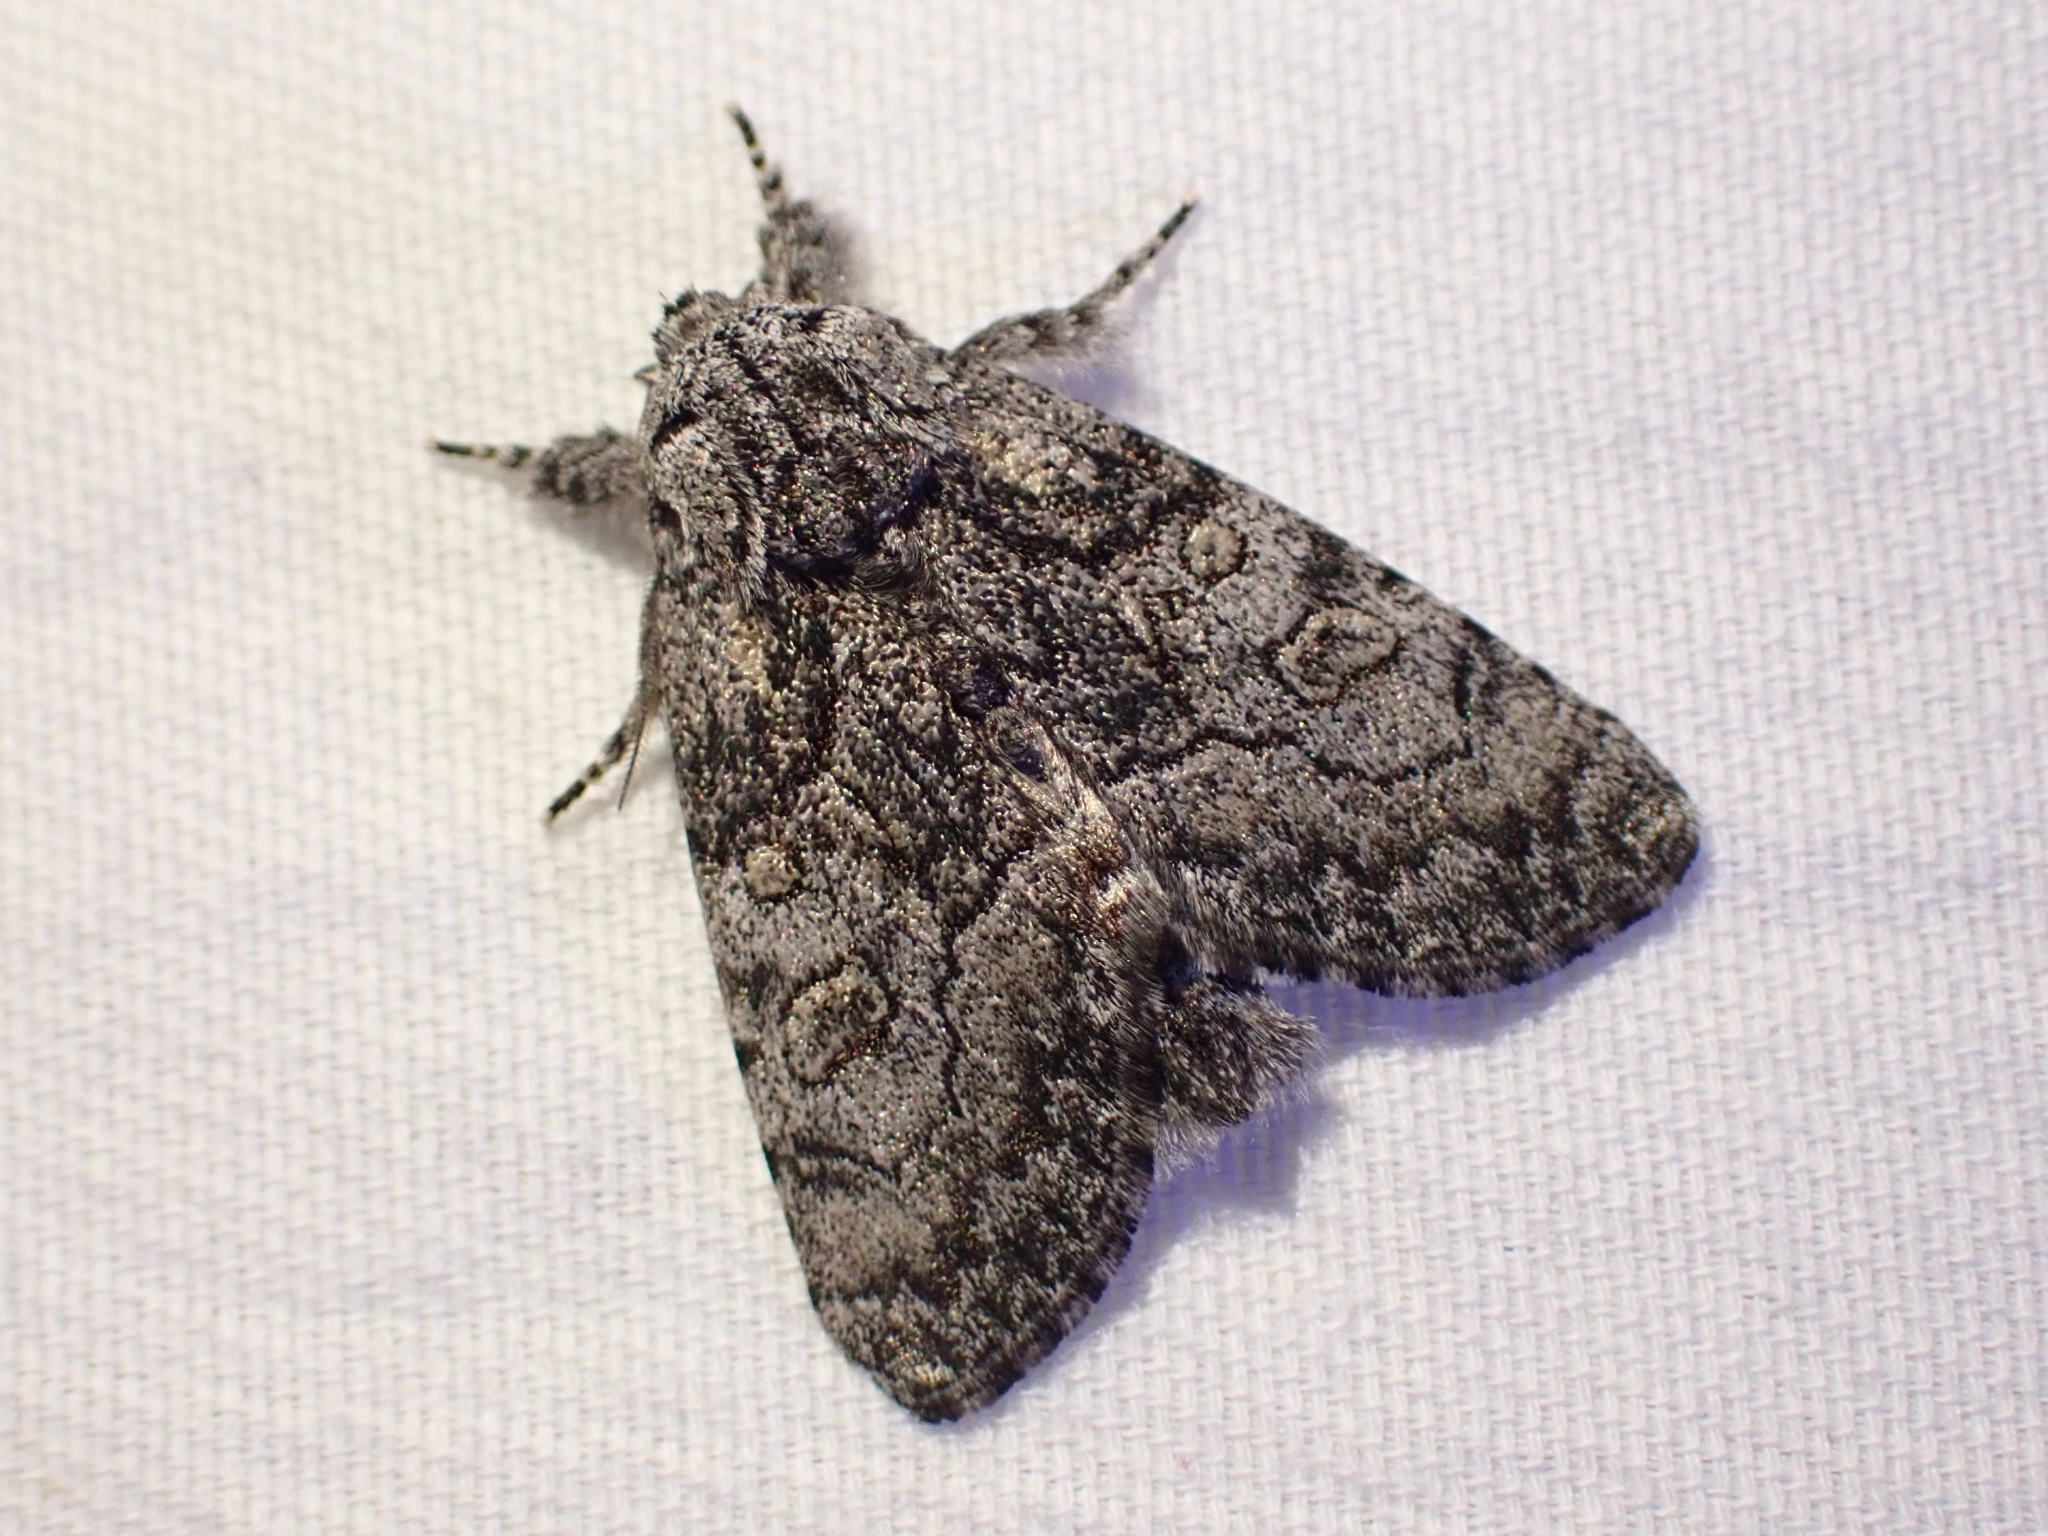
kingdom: Animalia
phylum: Arthropoda
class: Insecta
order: Lepidoptera
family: Noctuidae
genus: Raphia
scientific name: Raphia frater
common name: Brother
